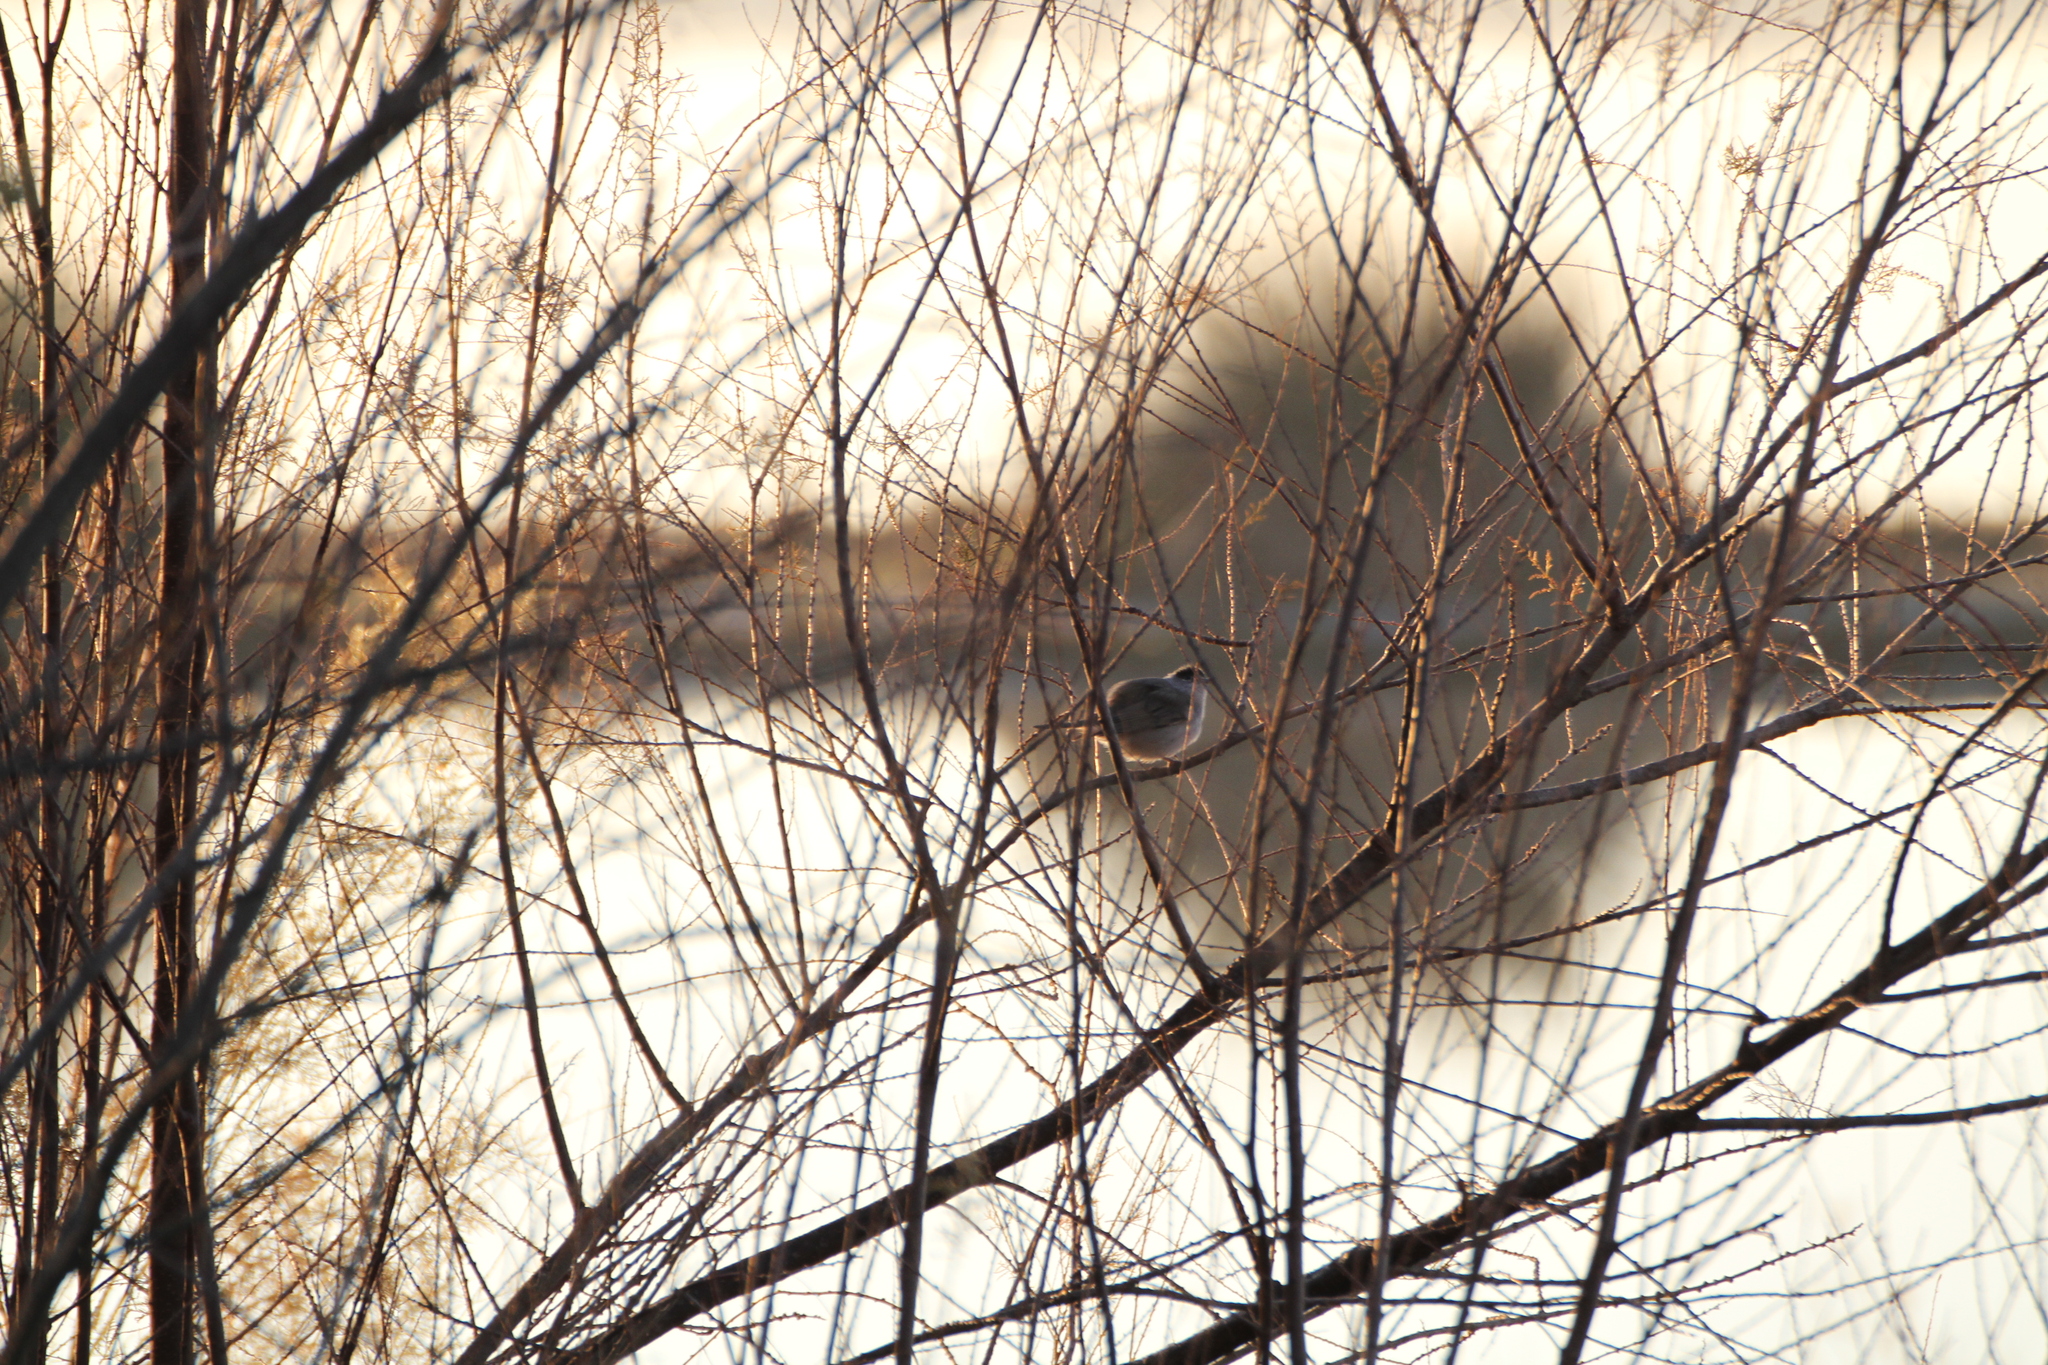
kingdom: Animalia
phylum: Chordata
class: Aves
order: Passeriformes
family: Sylviidae
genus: Sylvia
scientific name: Sylvia atricapilla
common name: Eurasian blackcap
